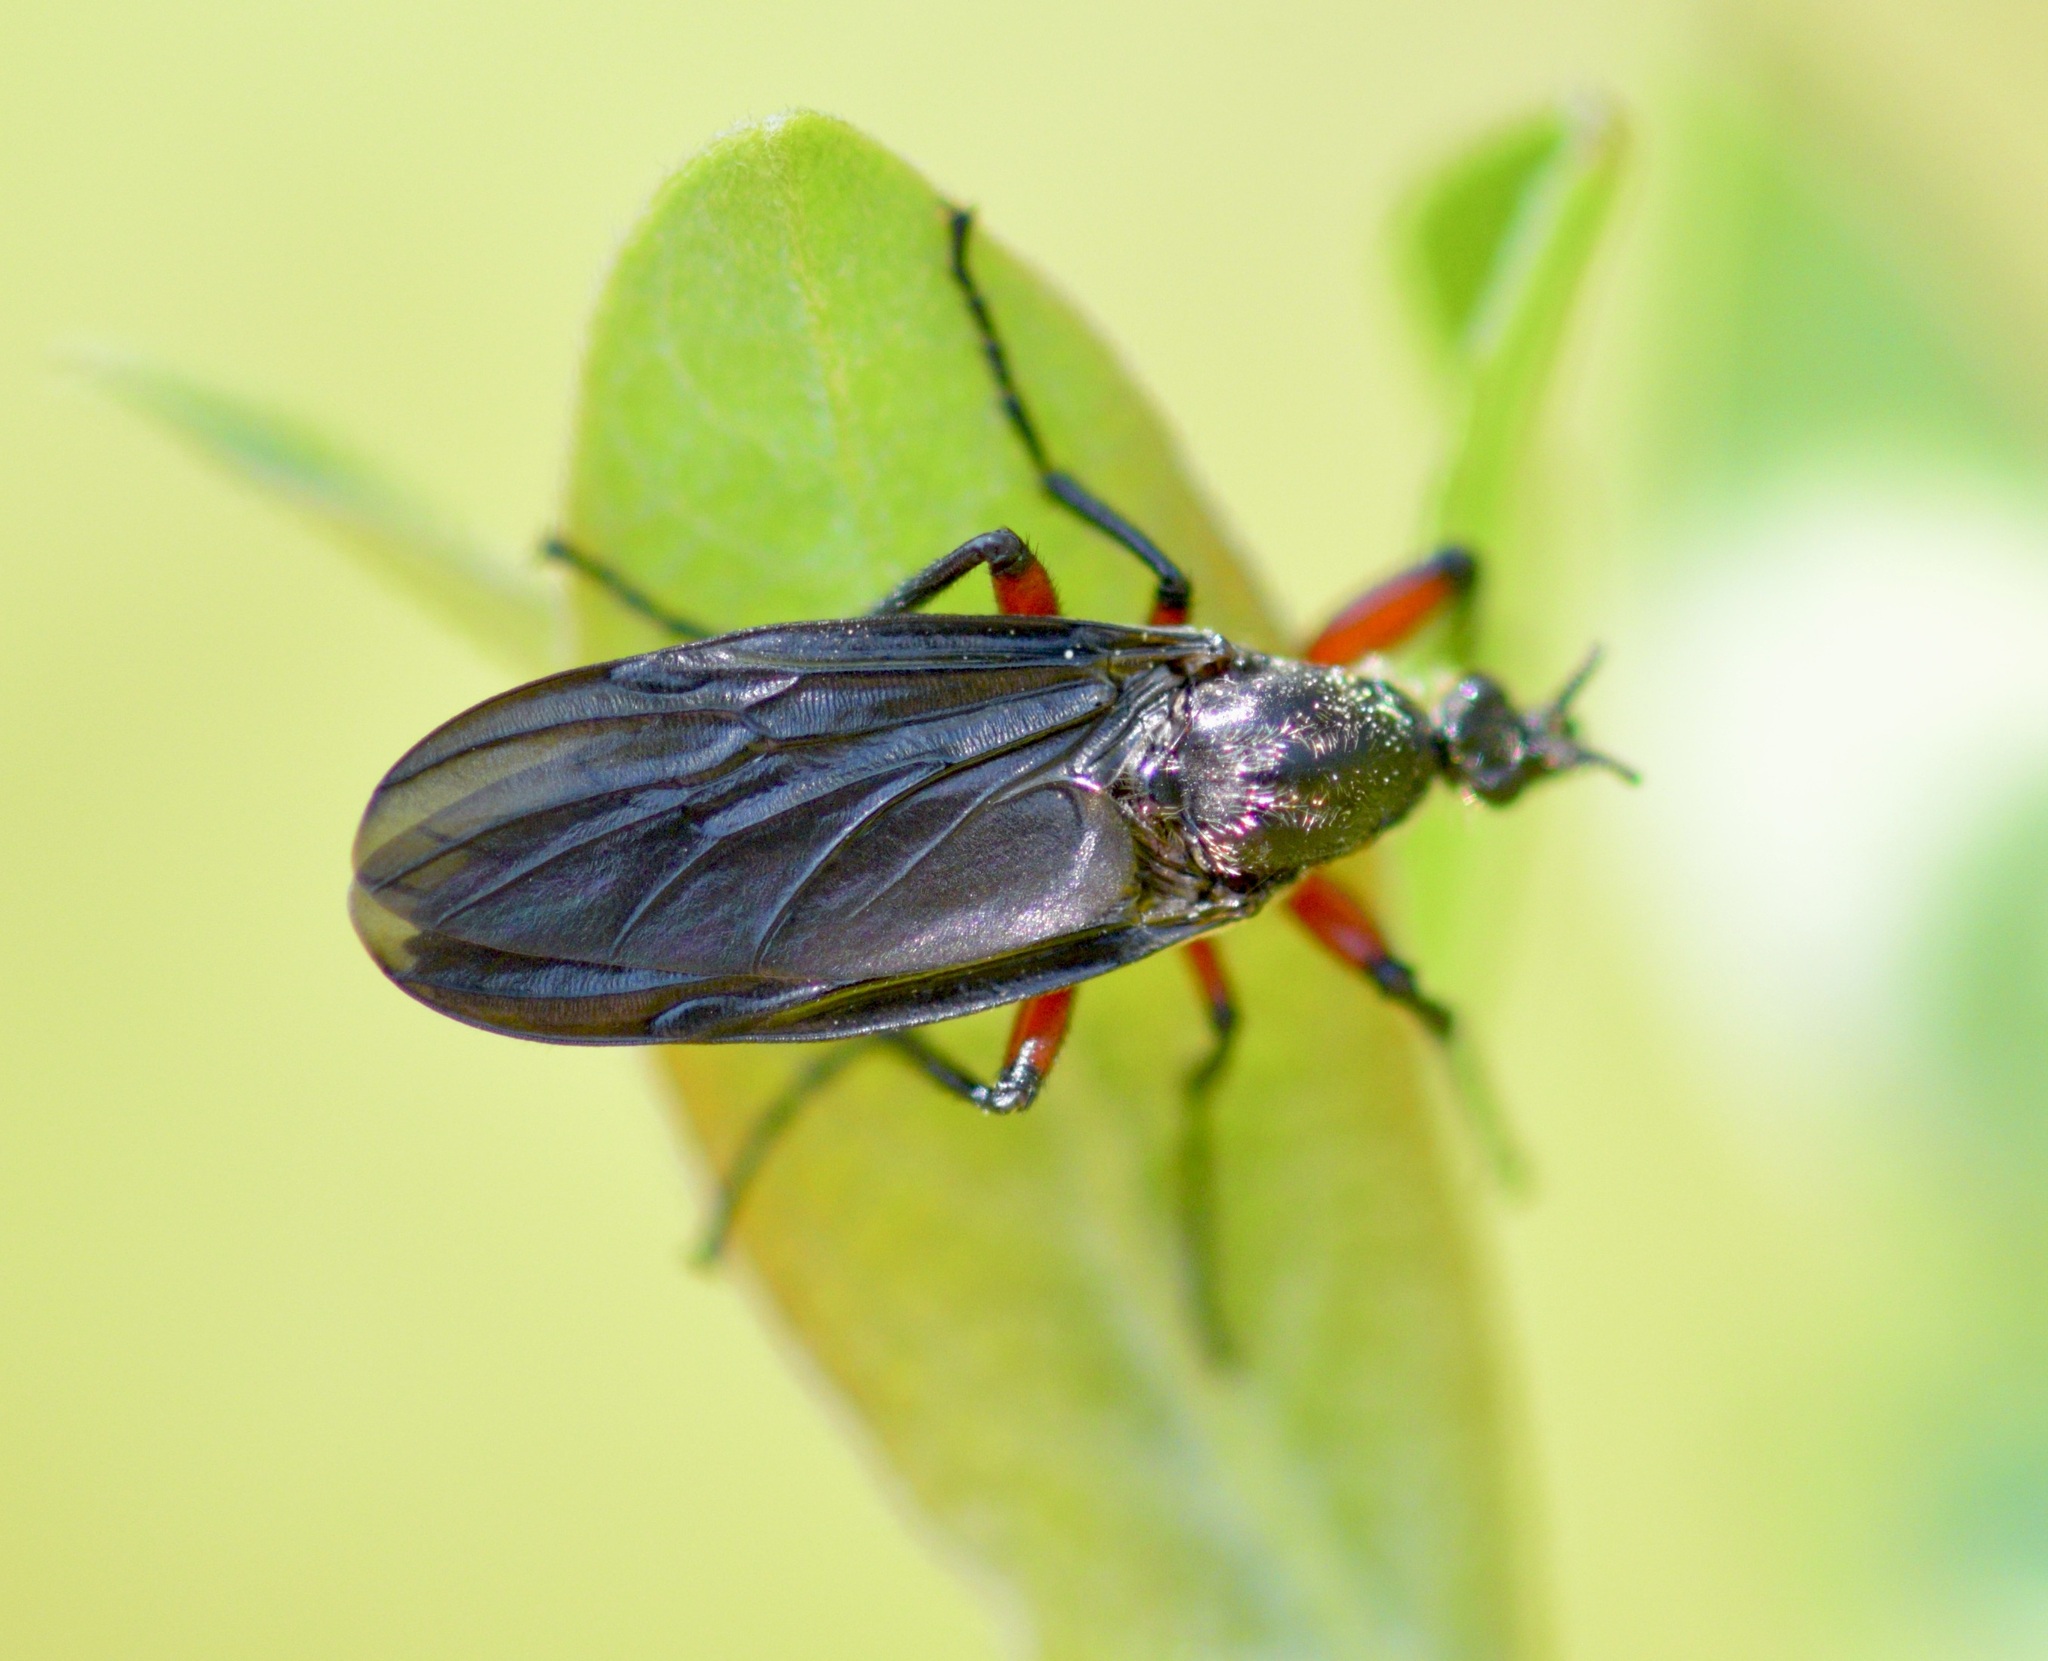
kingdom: Animalia
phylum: Arthropoda
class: Insecta
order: Diptera
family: Bibionidae
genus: Bibio
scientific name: Bibio femoratus
